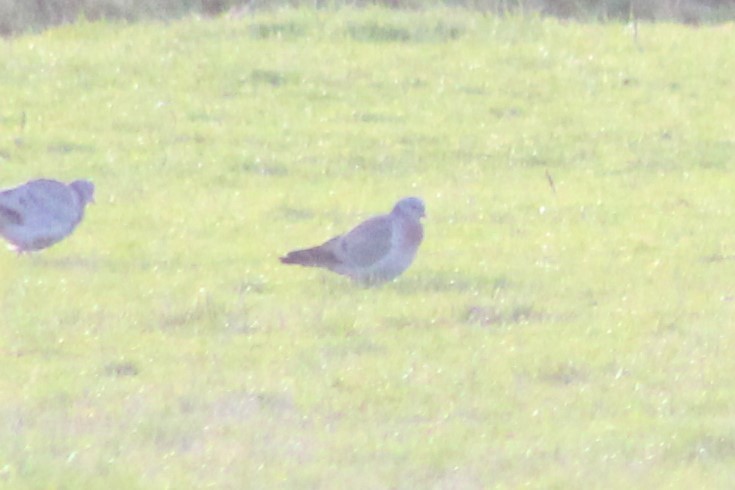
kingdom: Animalia
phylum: Chordata
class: Aves
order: Columbiformes
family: Columbidae
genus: Columba
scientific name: Columba oenas
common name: Stock dove
